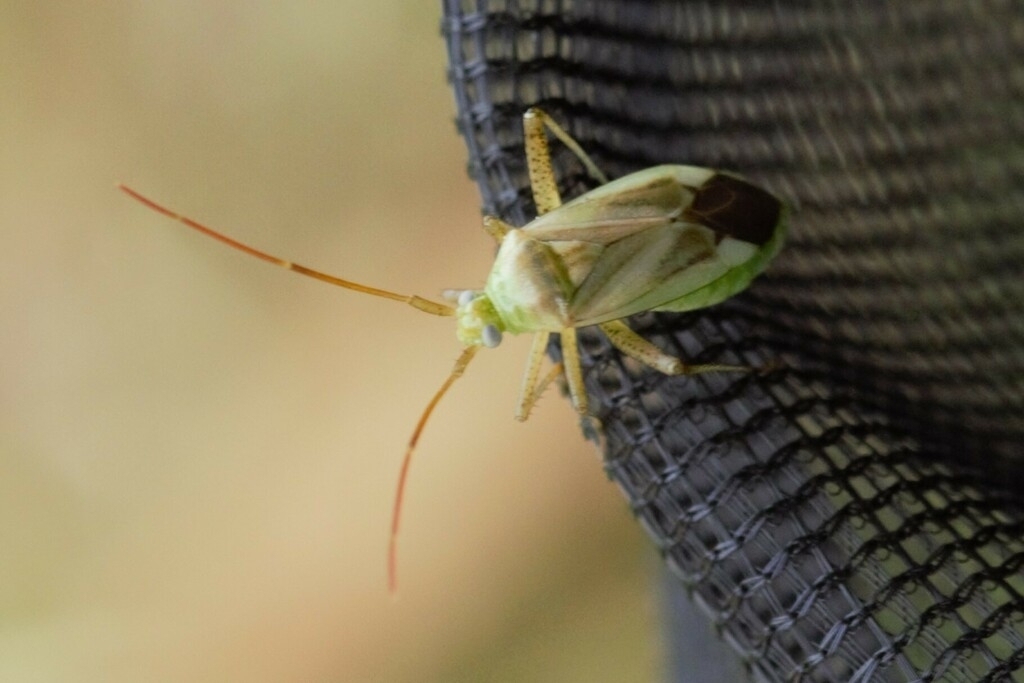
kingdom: Animalia
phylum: Arthropoda
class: Insecta
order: Hemiptera
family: Miridae
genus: Adelphocoris
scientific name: Adelphocoris lineolatus
